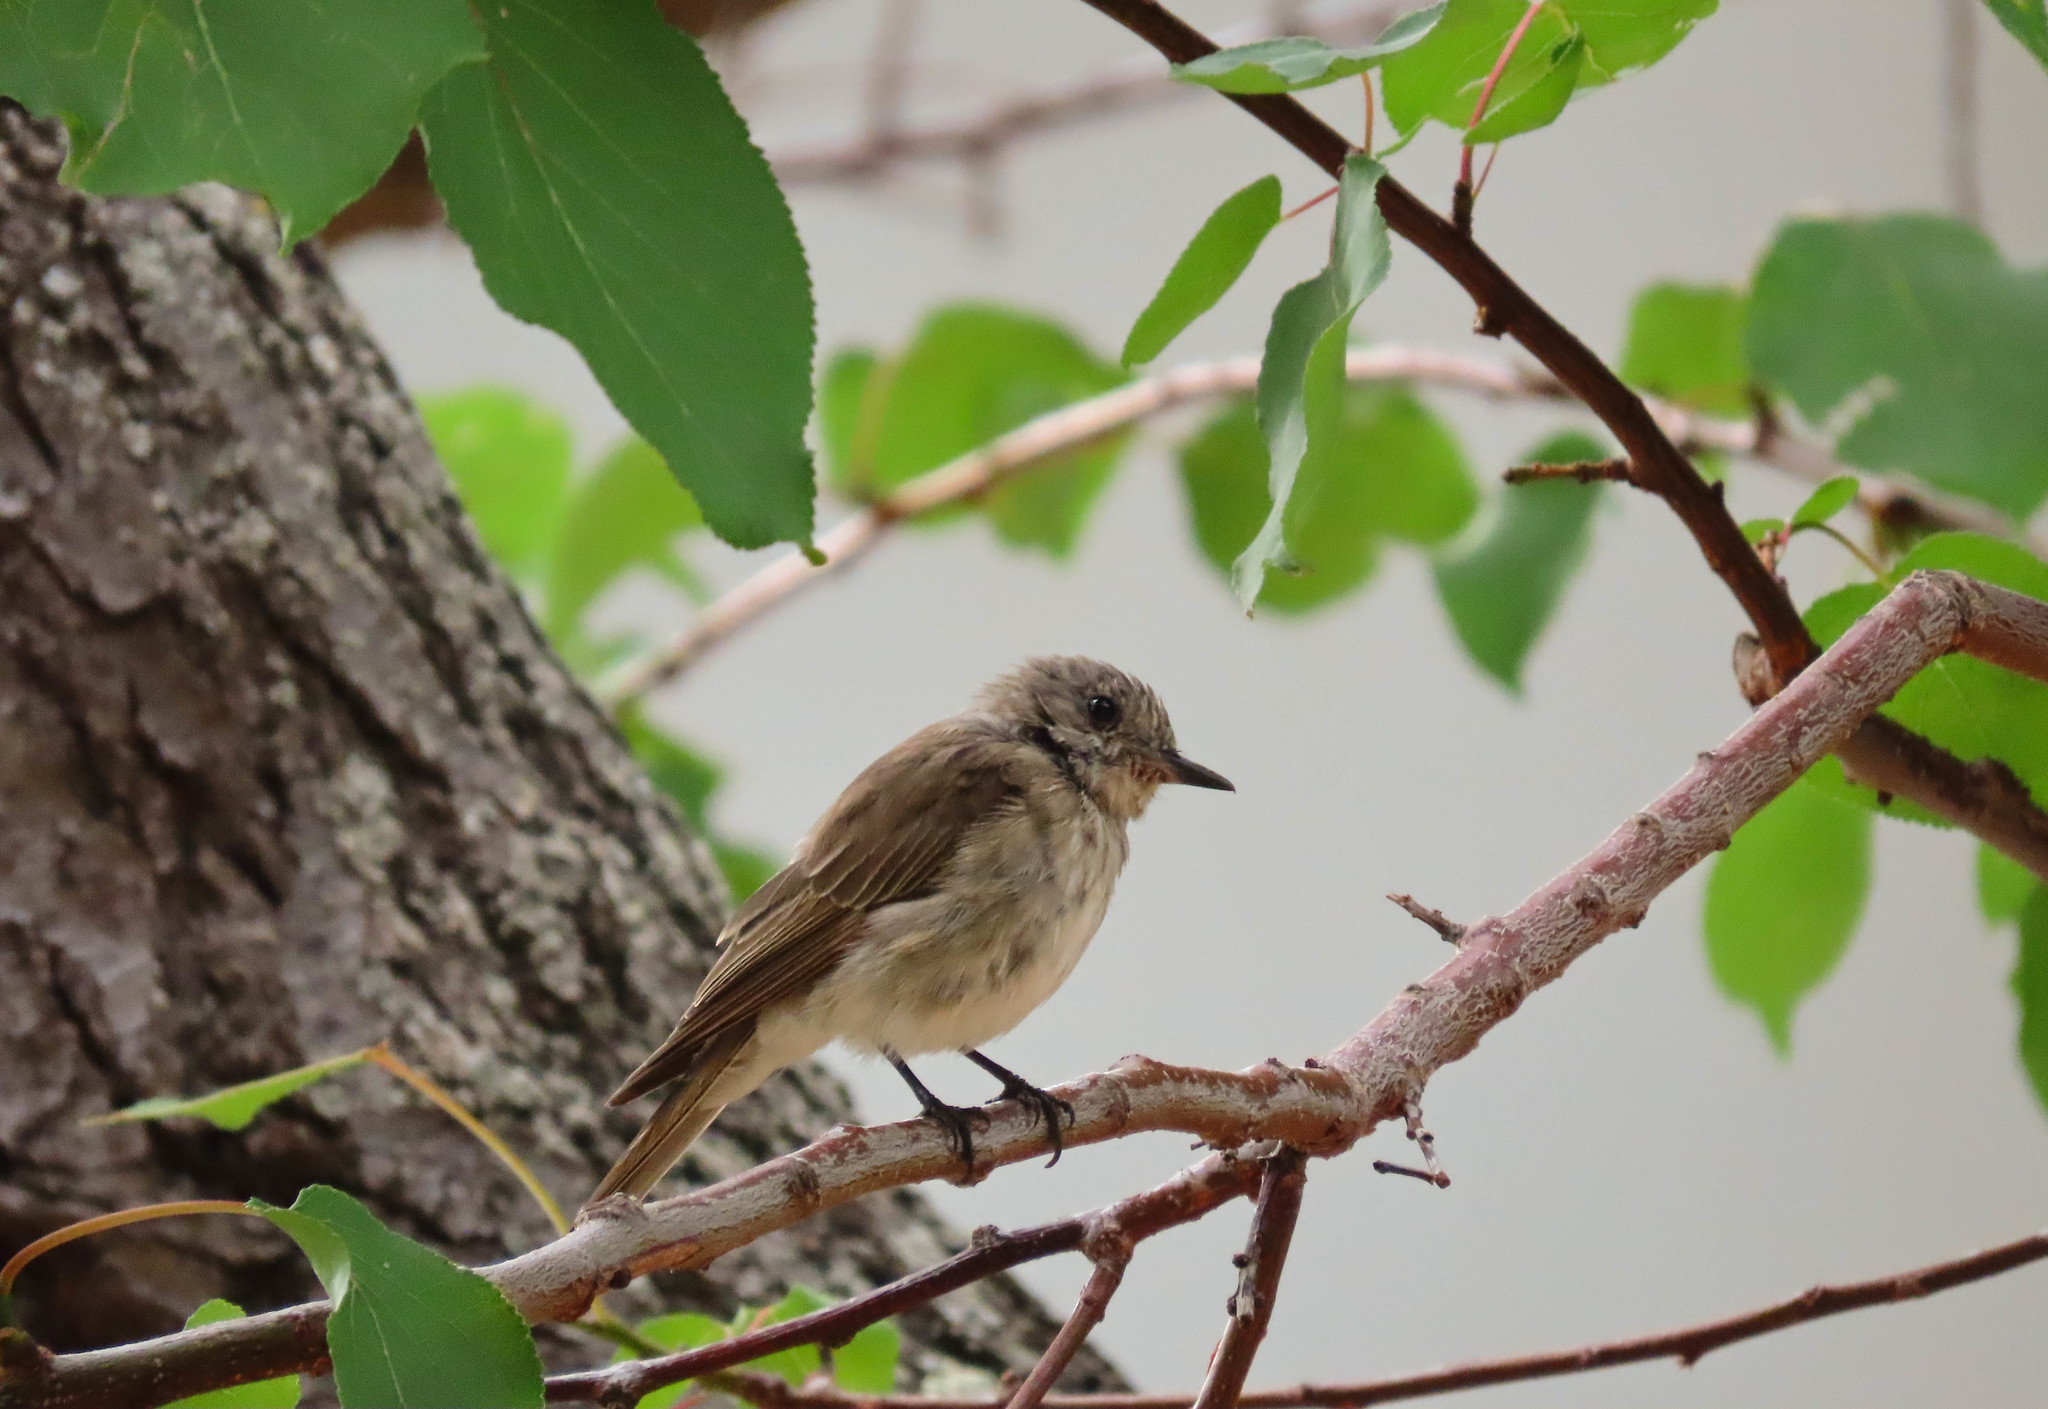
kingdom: Animalia
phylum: Chordata
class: Aves
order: Passeriformes
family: Muscicapidae
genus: Muscicapa
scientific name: Muscicapa striata
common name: Spotted flycatcher
